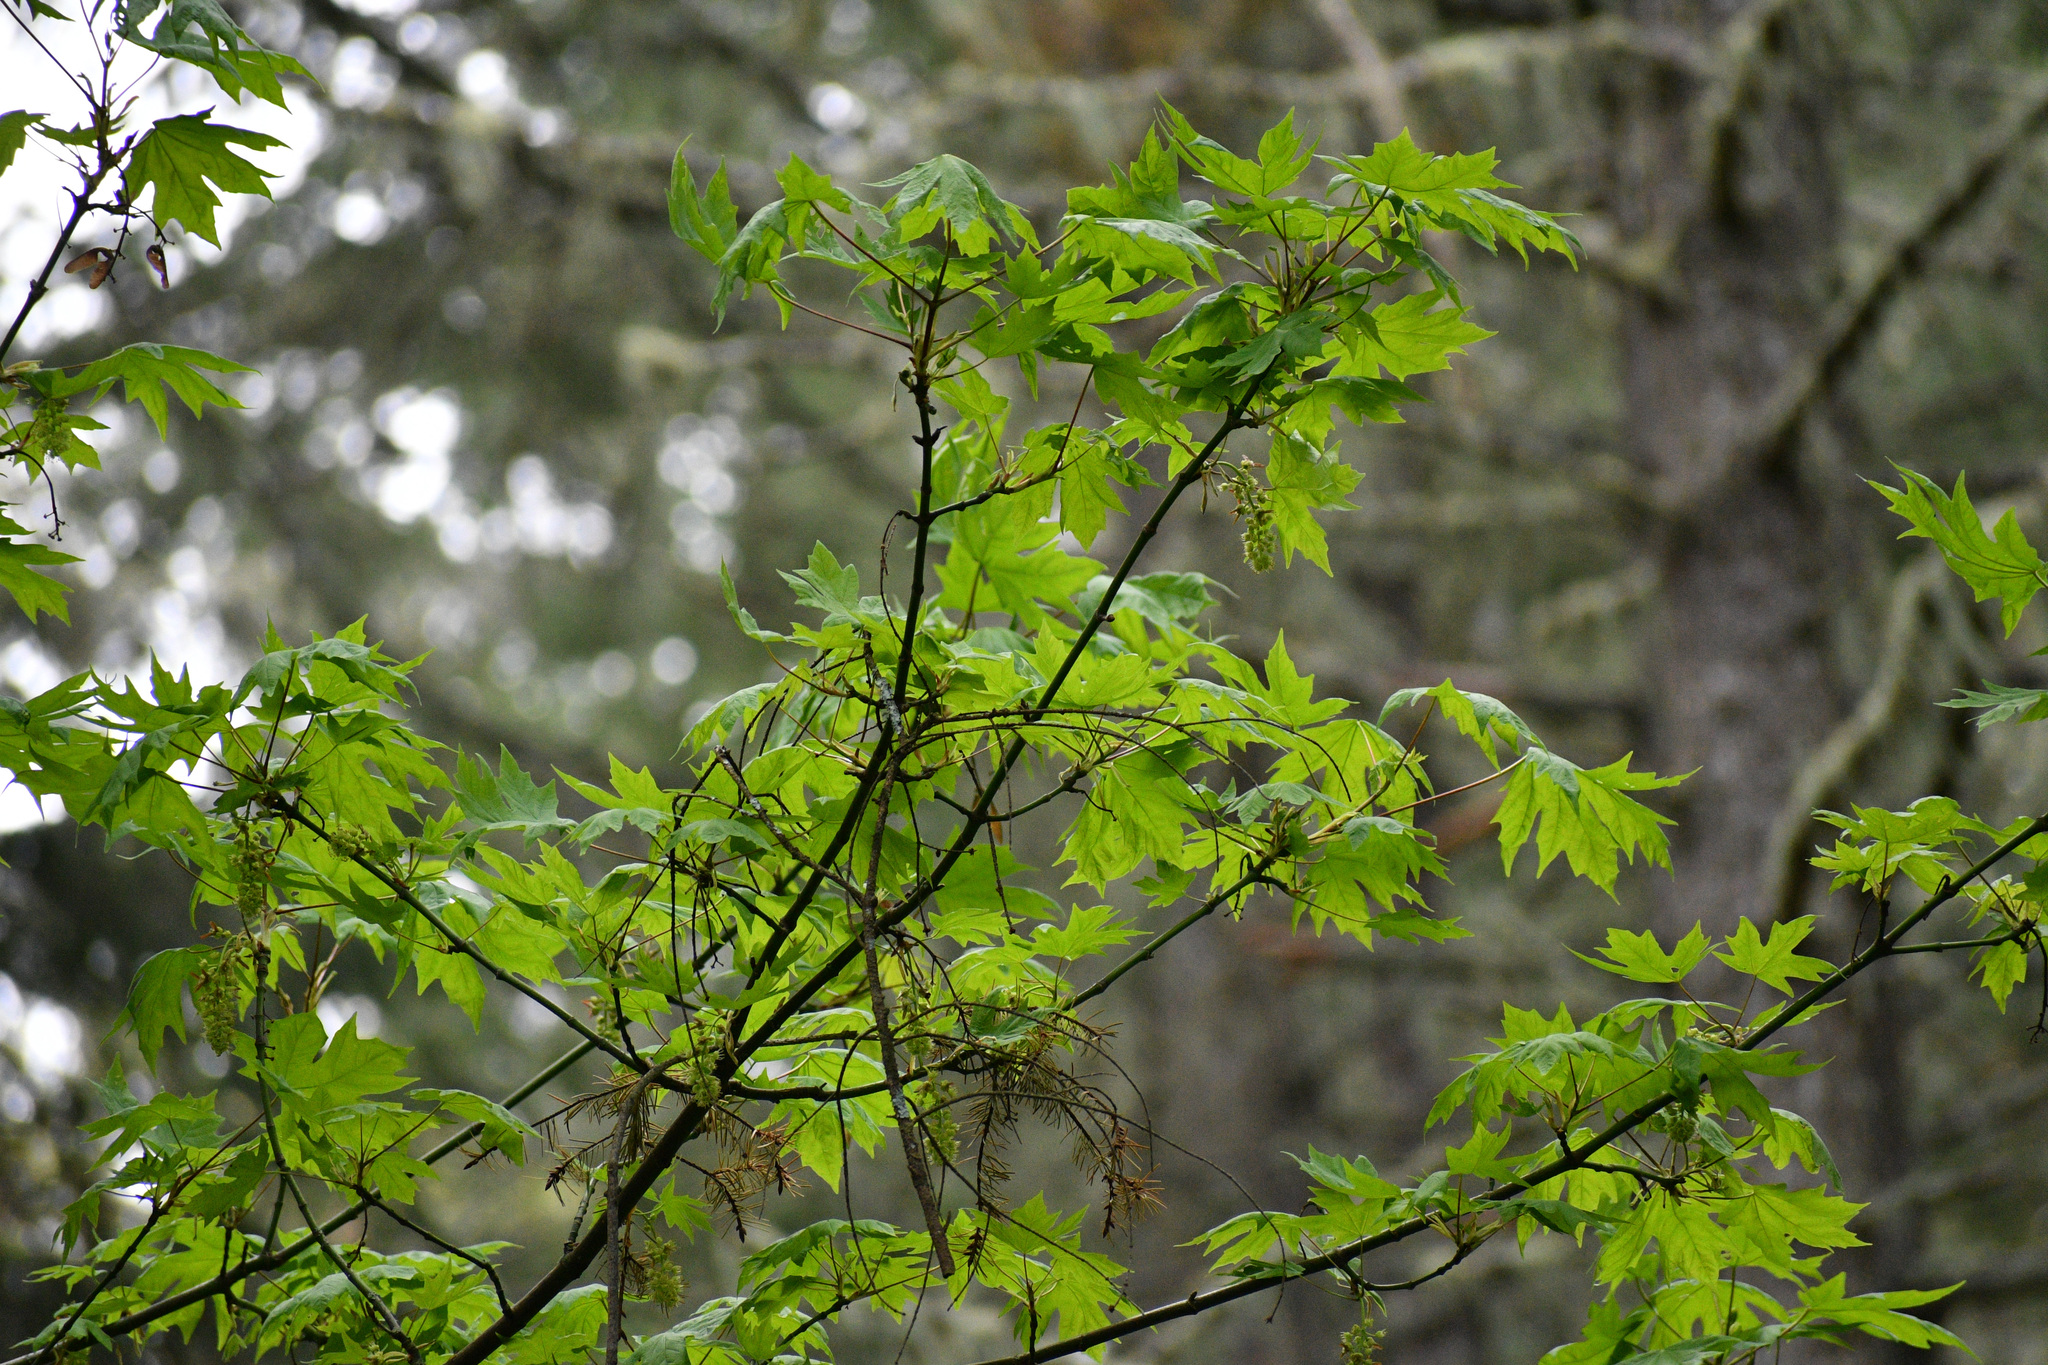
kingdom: Plantae
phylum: Tracheophyta
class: Magnoliopsida
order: Sapindales
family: Sapindaceae
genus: Acer
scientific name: Acer macrophyllum
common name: Oregon maple
